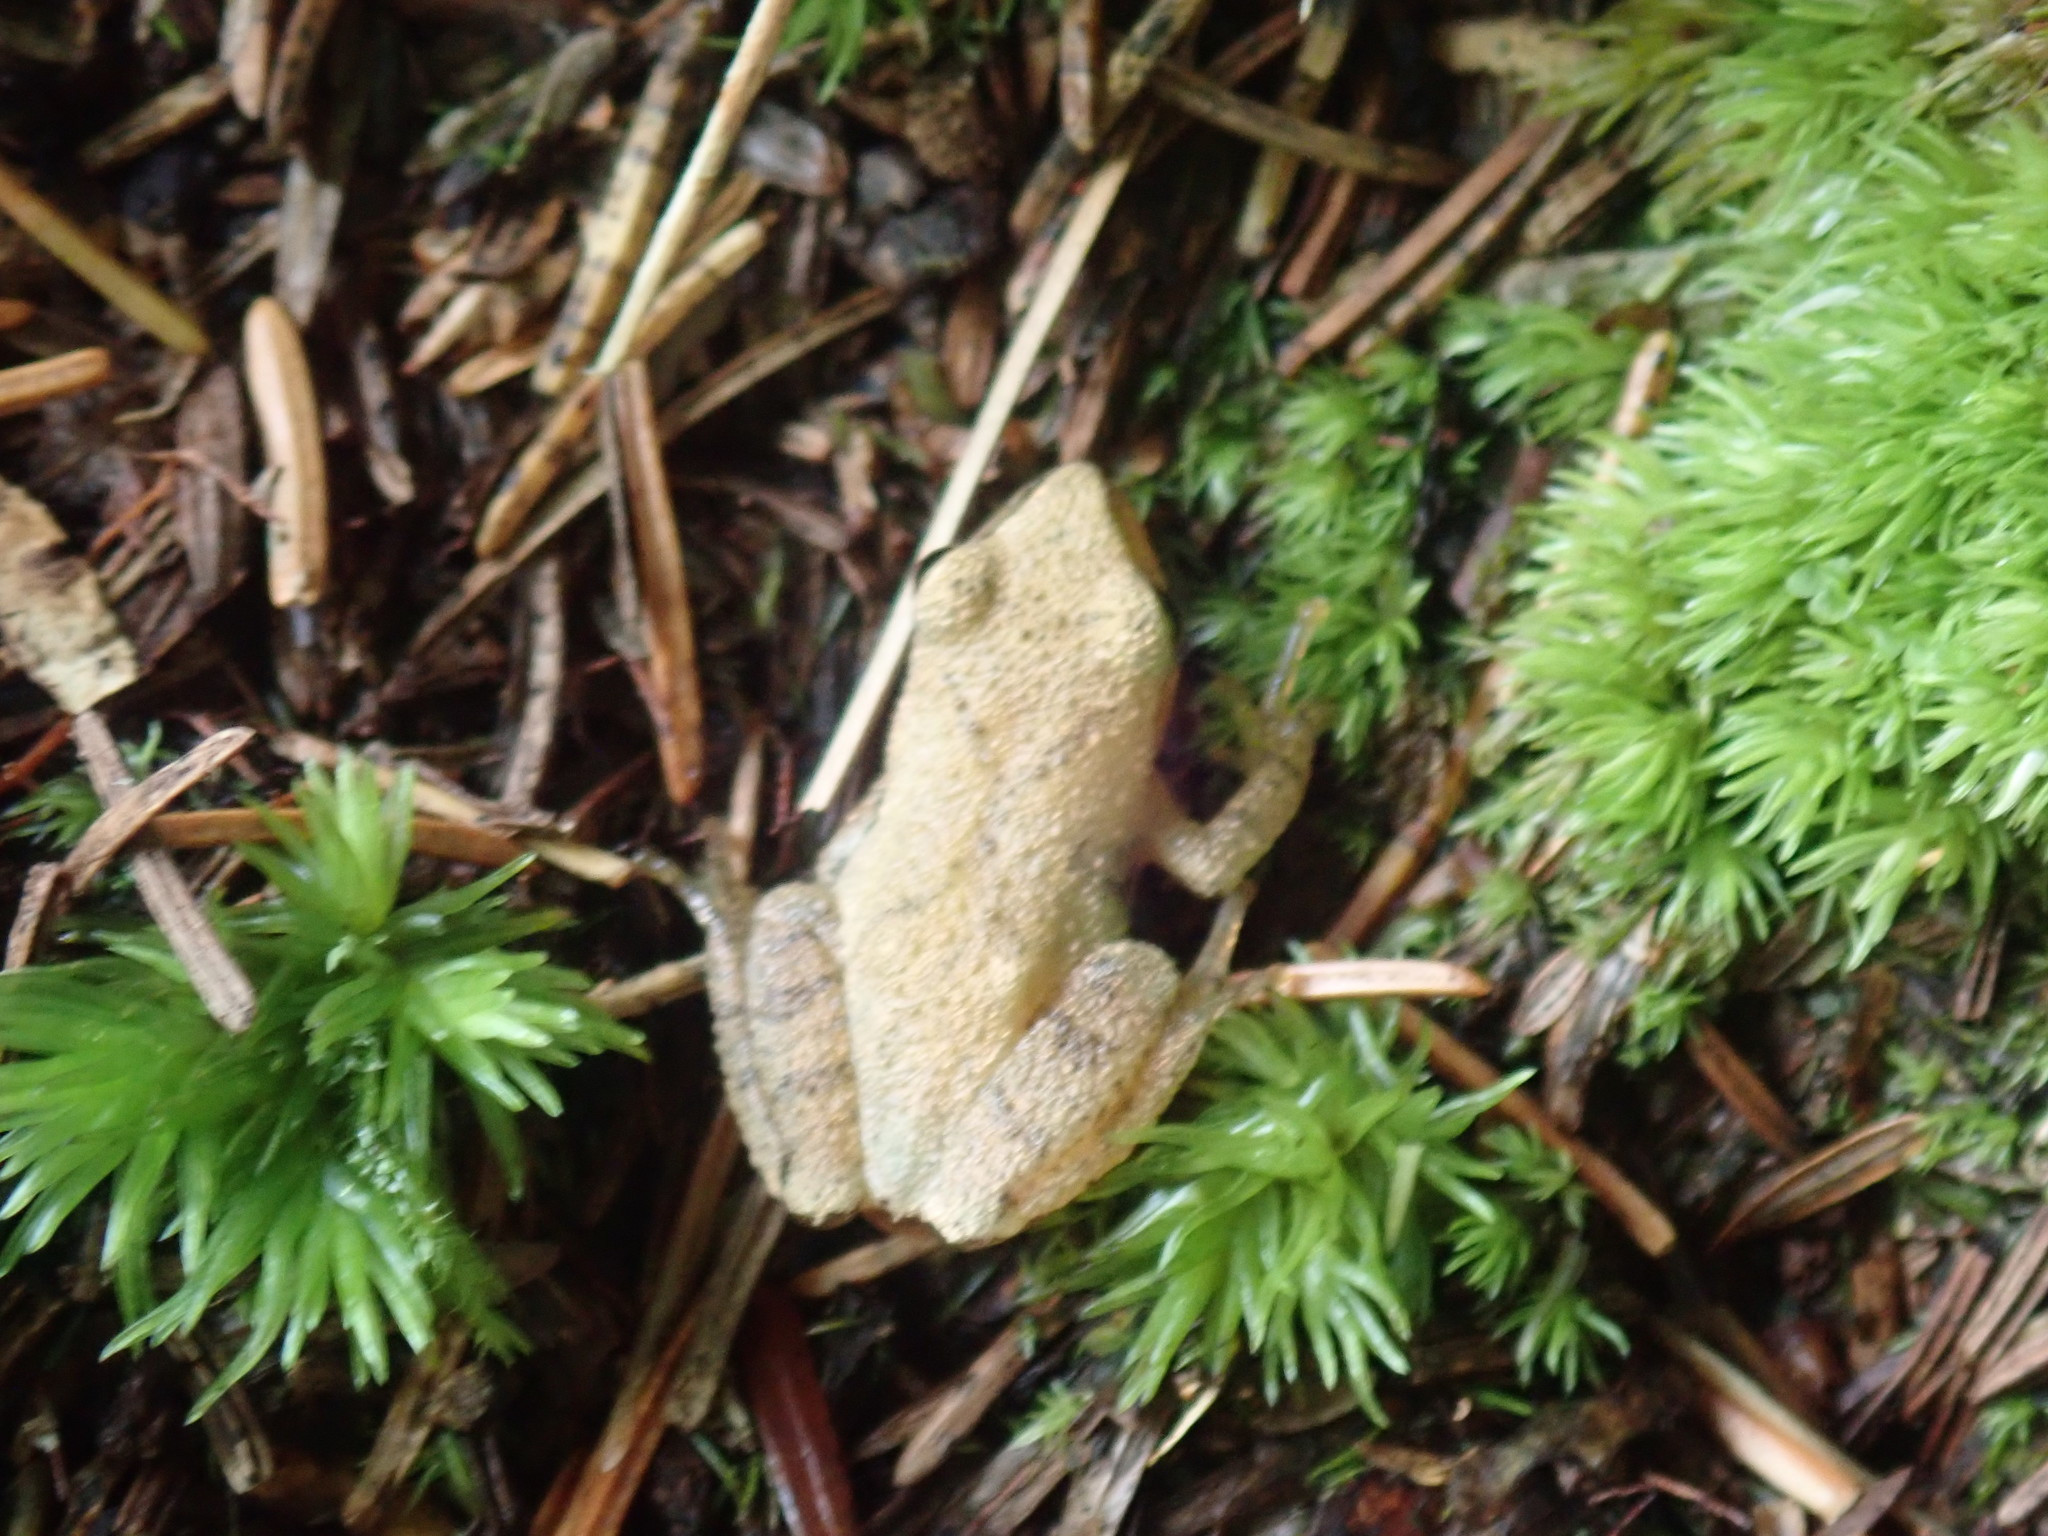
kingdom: Animalia
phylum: Chordata
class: Amphibia
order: Anura
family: Hylidae
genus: Pseudacris
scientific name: Pseudacris crucifer
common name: Spring peeper
